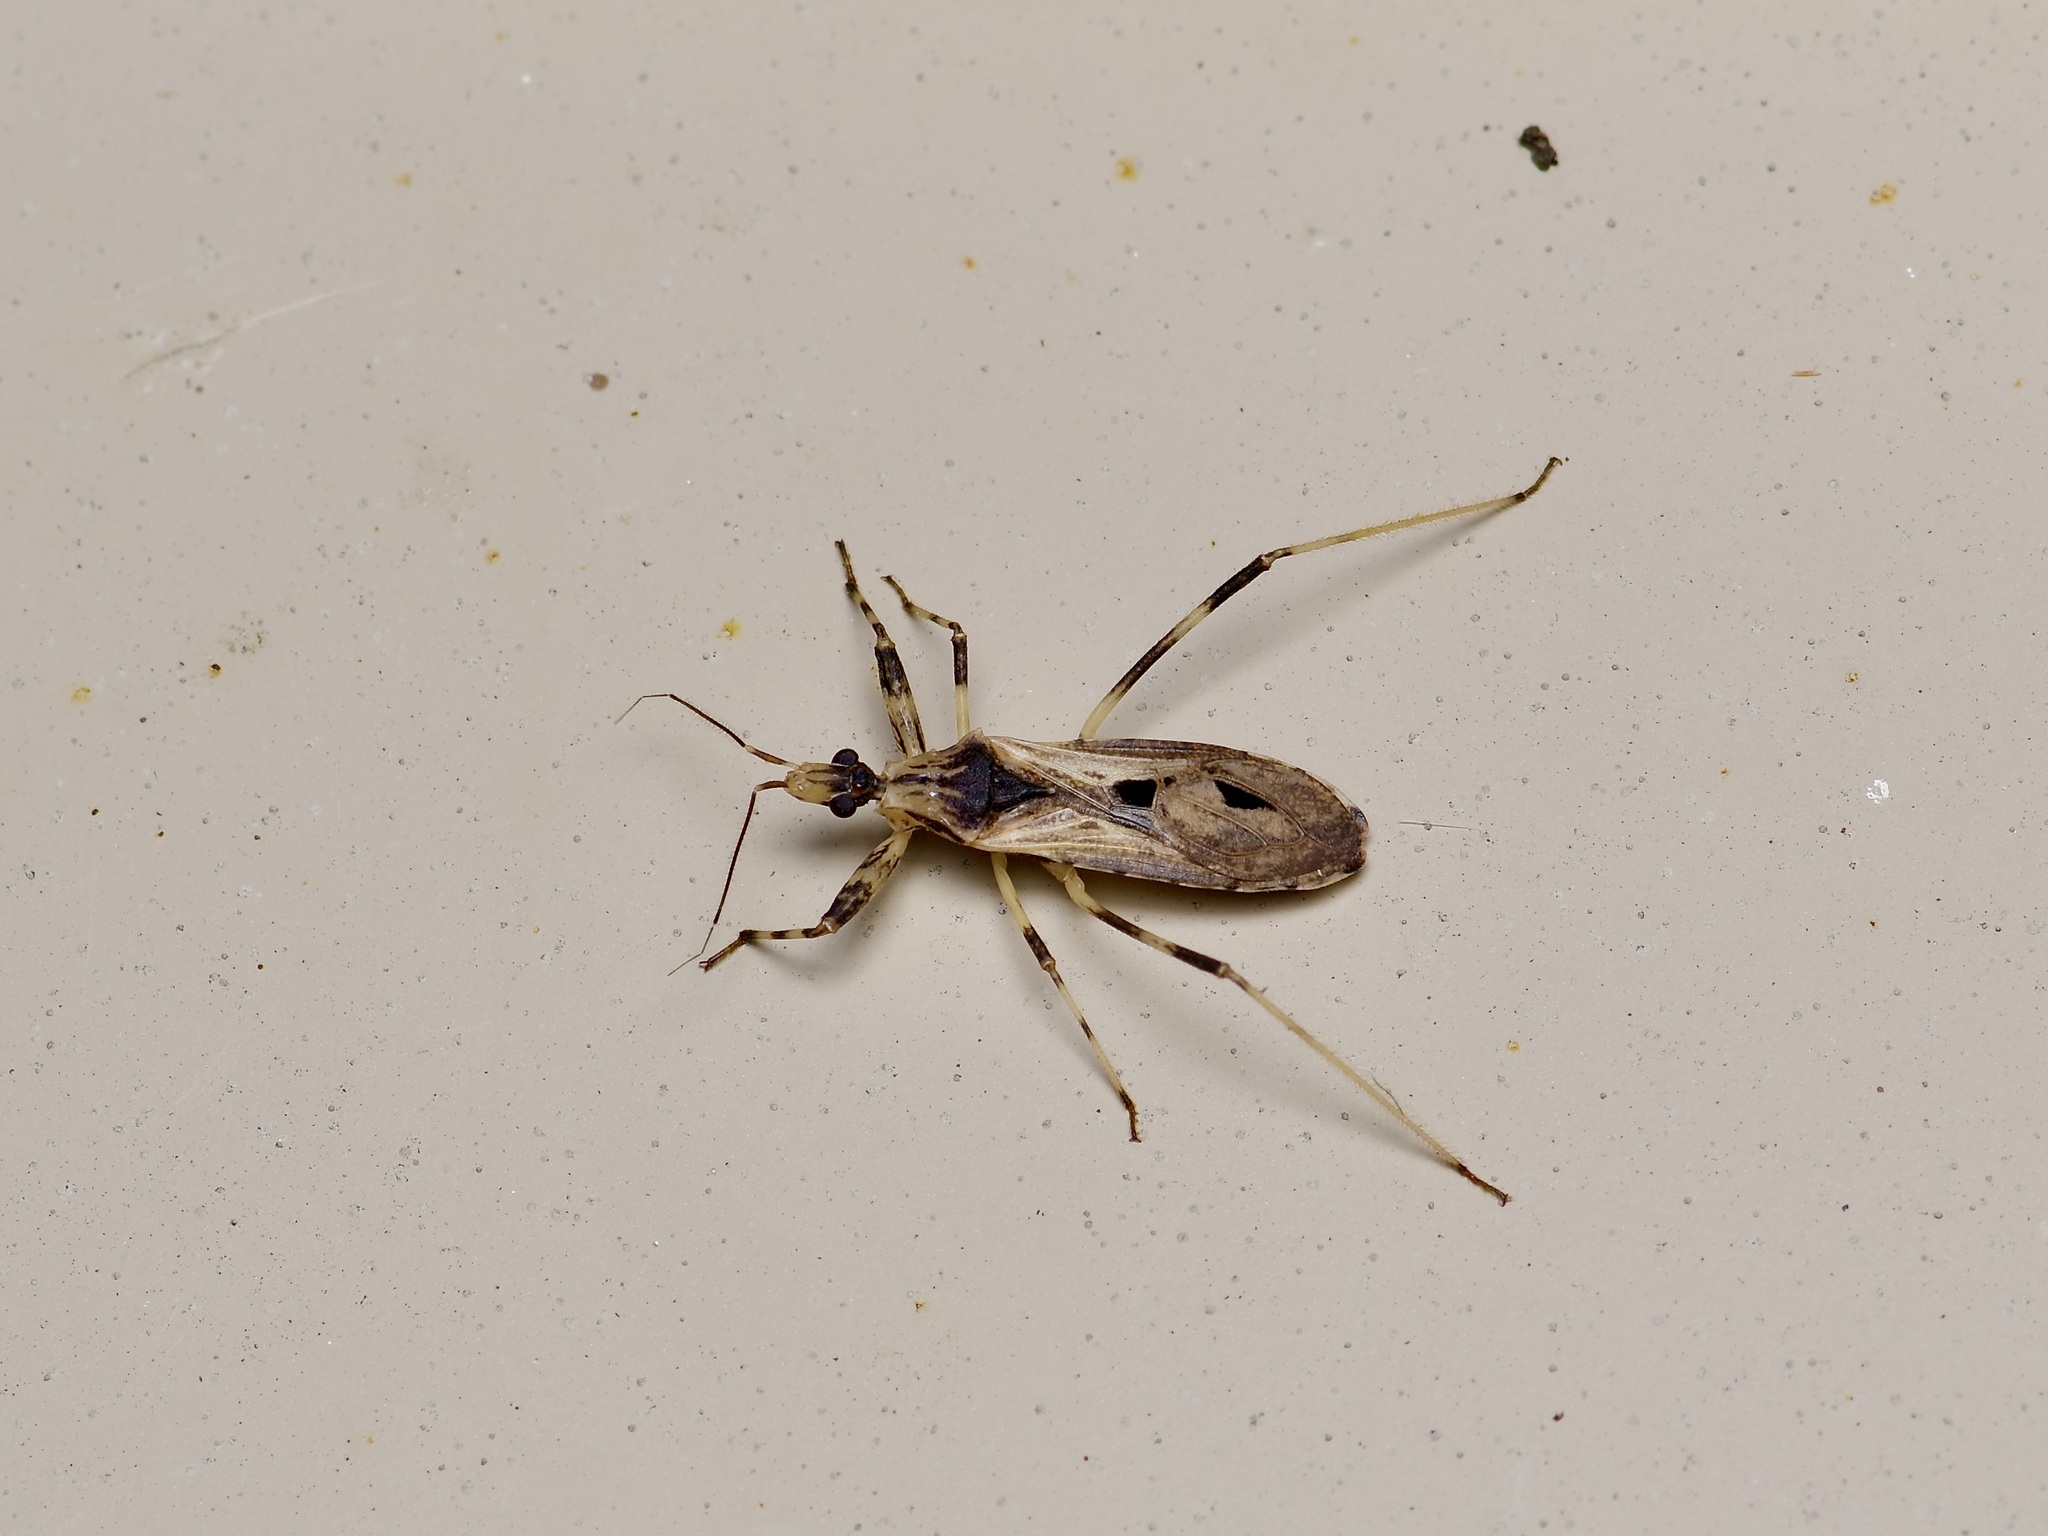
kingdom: Animalia
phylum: Arthropoda
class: Insecta
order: Hemiptera
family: Reduviidae
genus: Oncocephalus
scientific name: Oncocephalus geniculatus
